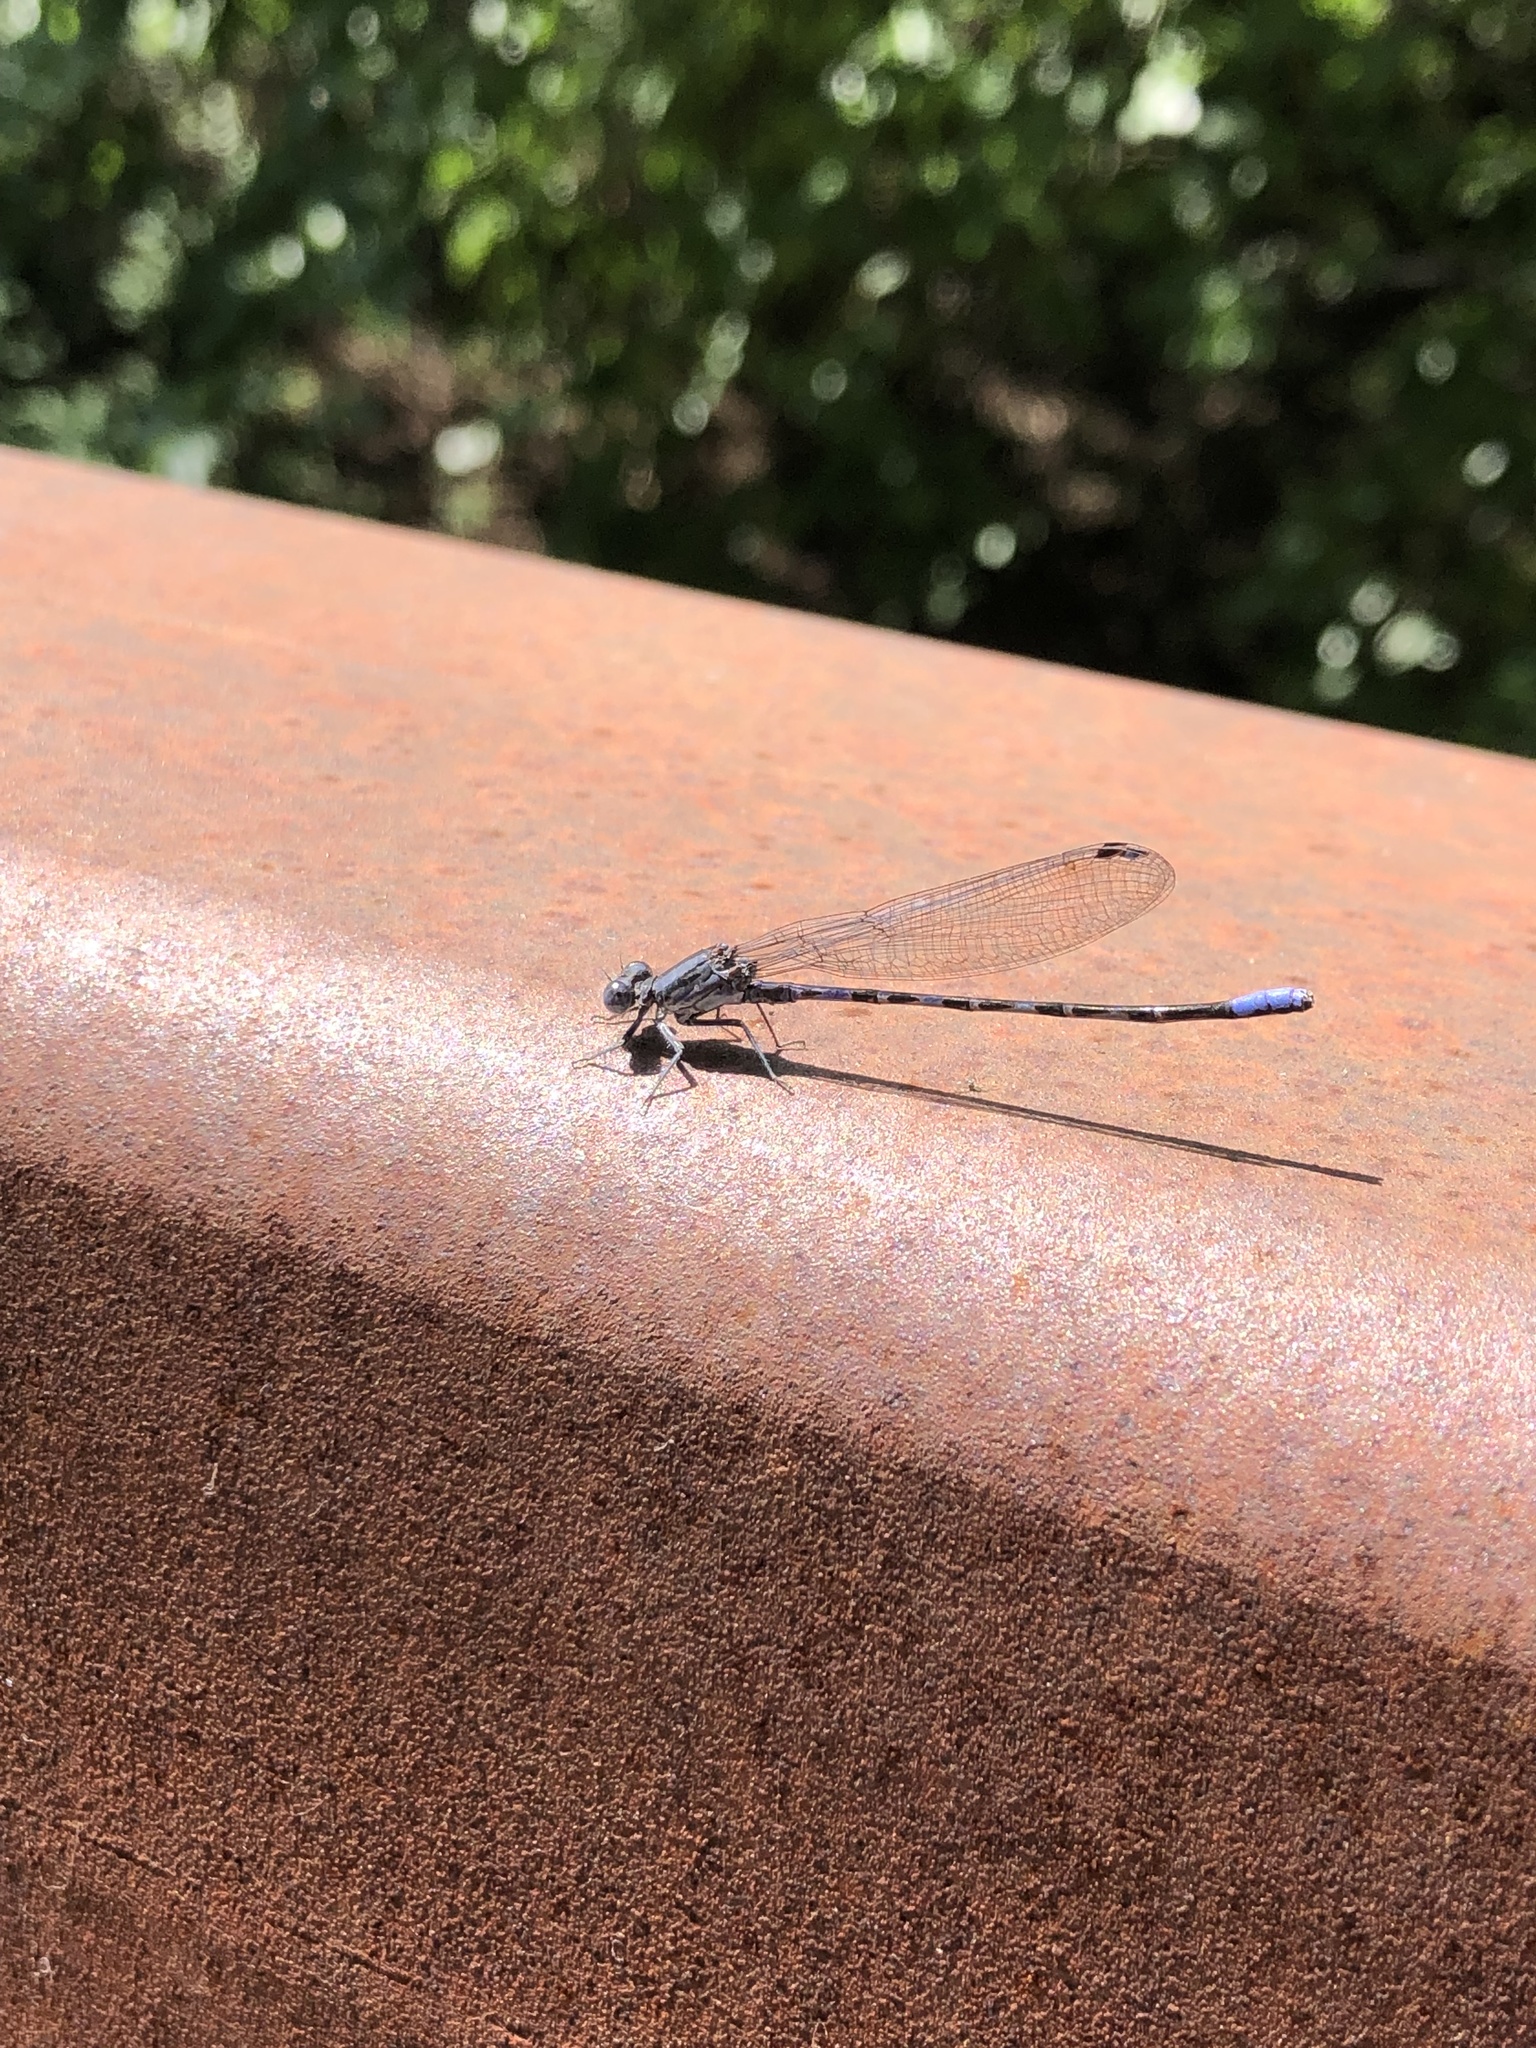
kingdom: Animalia
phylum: Arthropoda
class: Insecta
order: Odonata
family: Coenagrionidae
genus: Argia
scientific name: Argia immunda
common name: Kiowa dancer
